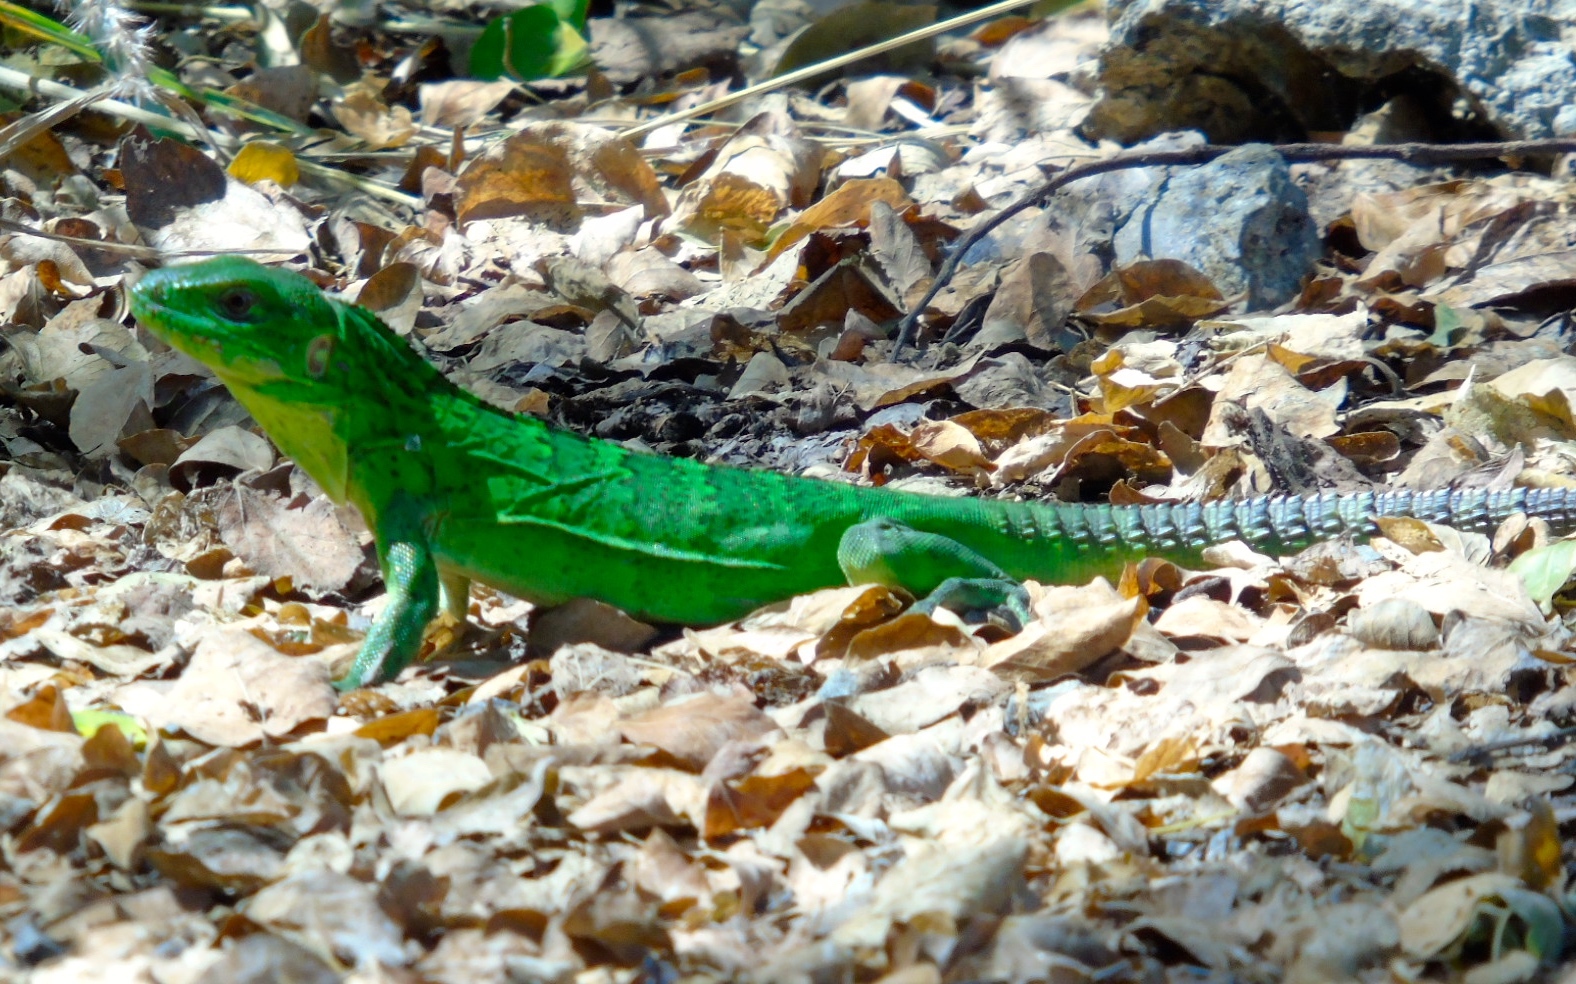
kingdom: Animalia
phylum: Chordata
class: Squamata
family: Iguanidae
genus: Ctenosaura
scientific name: Ctenosaura pectinata
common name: Guerreran spiny-tailed iguana
